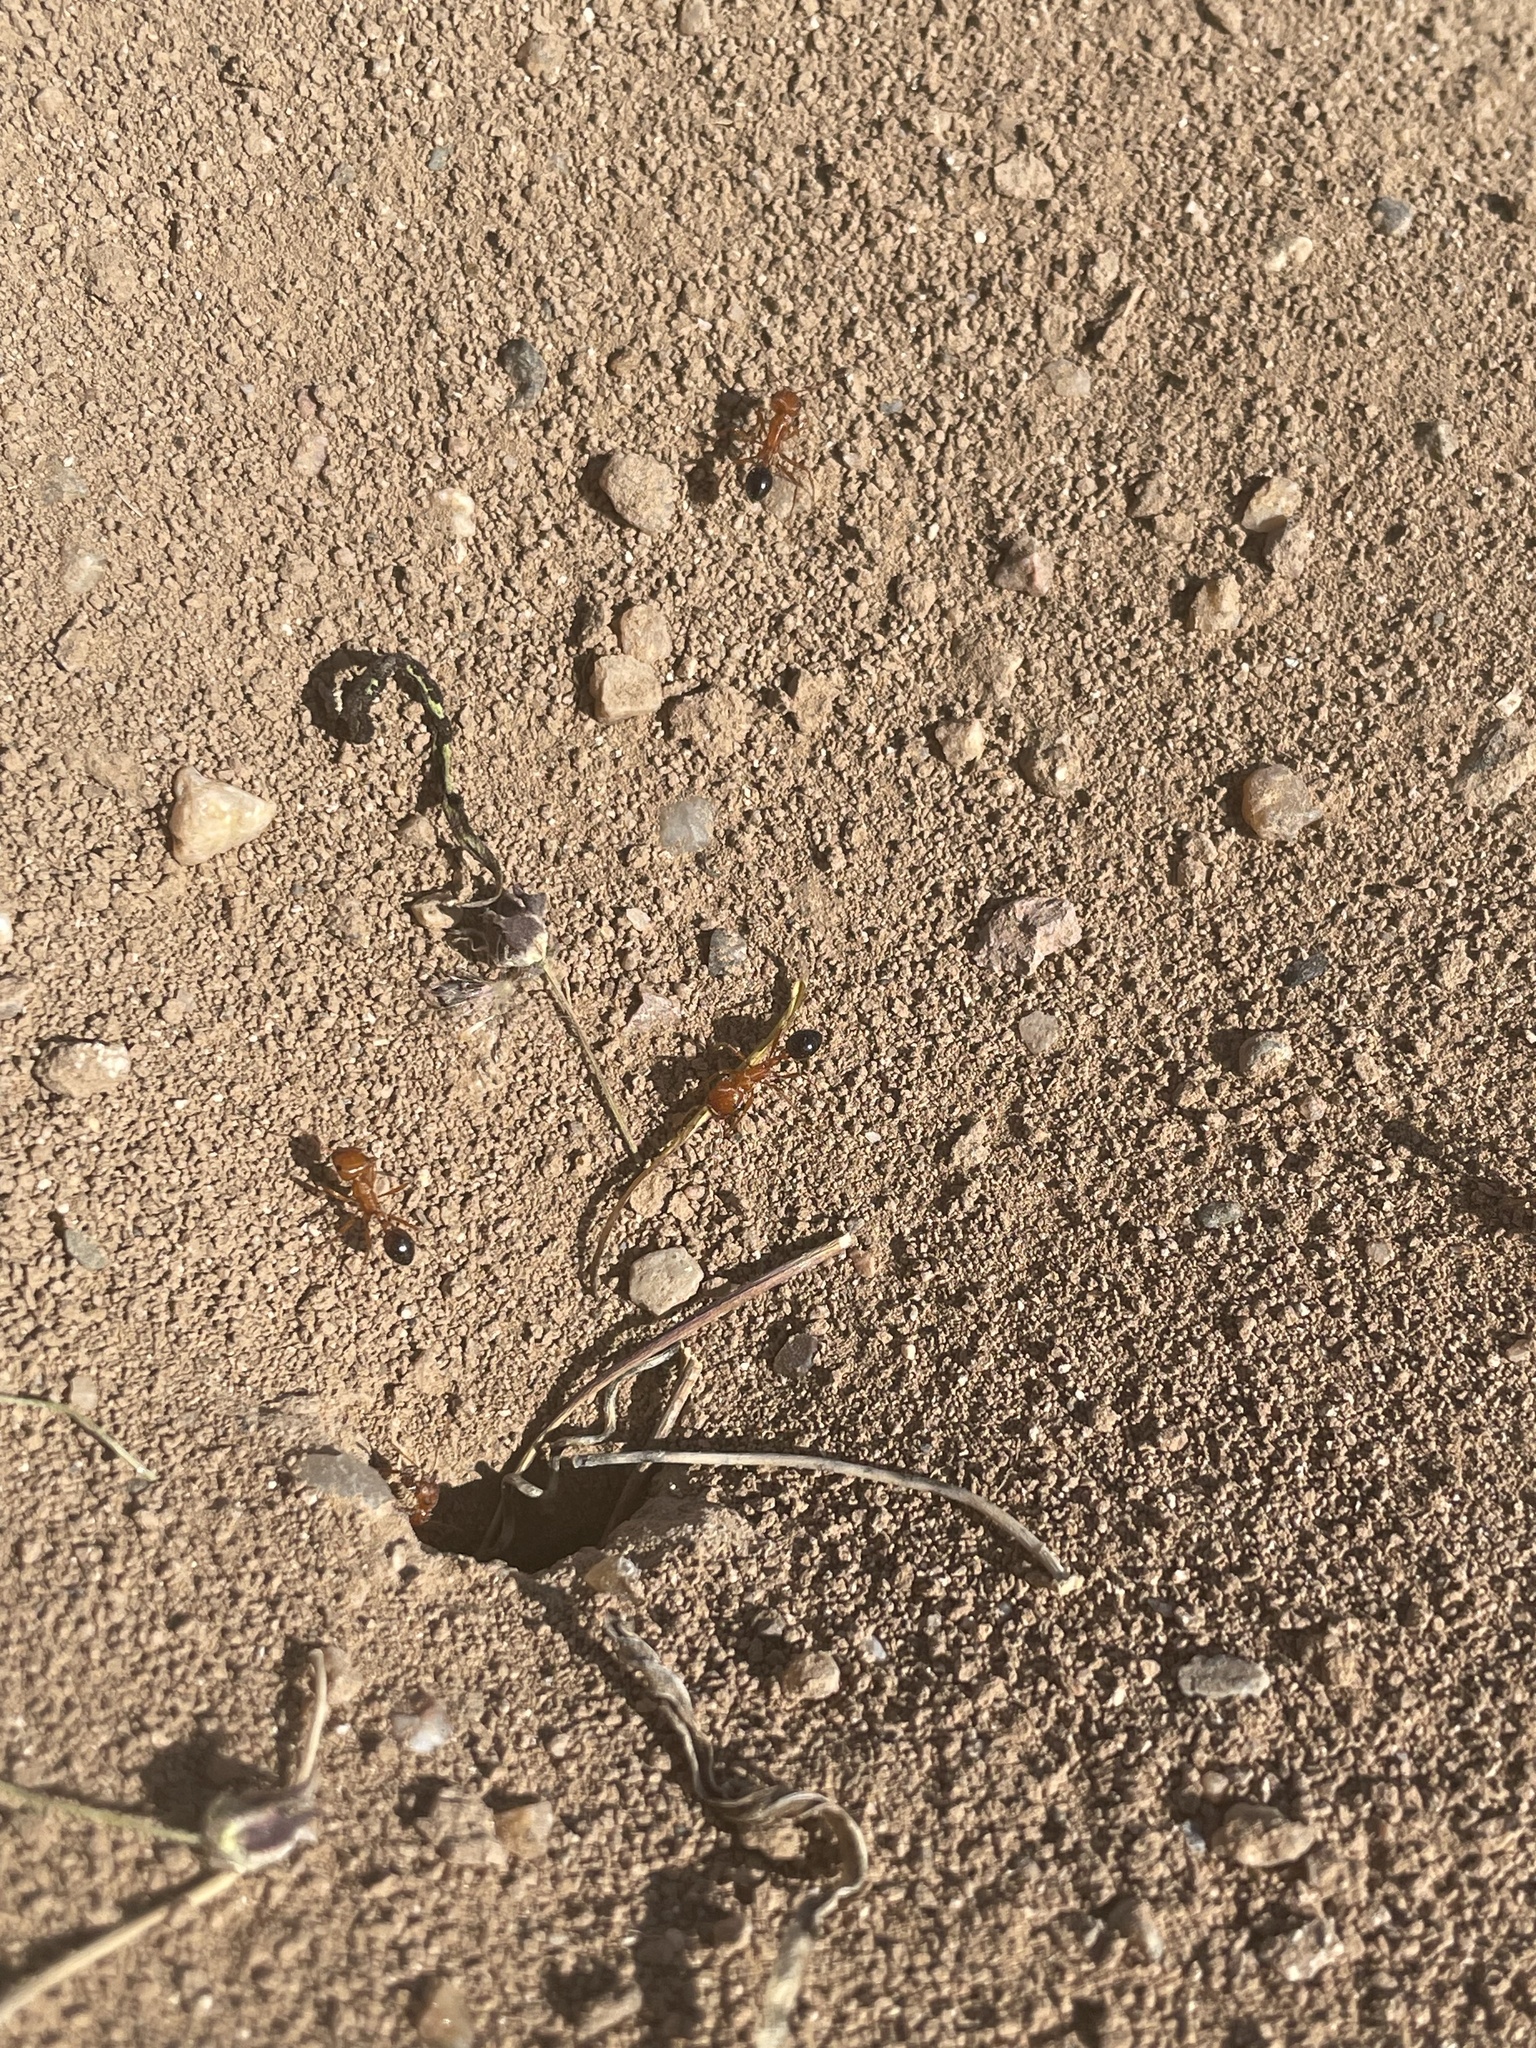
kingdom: Animalia
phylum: Arthropoda
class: Insecta
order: Hymenoptera
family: Formicidae
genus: Pogonomyrmex
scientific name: Pogonomyrmex californicus
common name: California harvester ant
